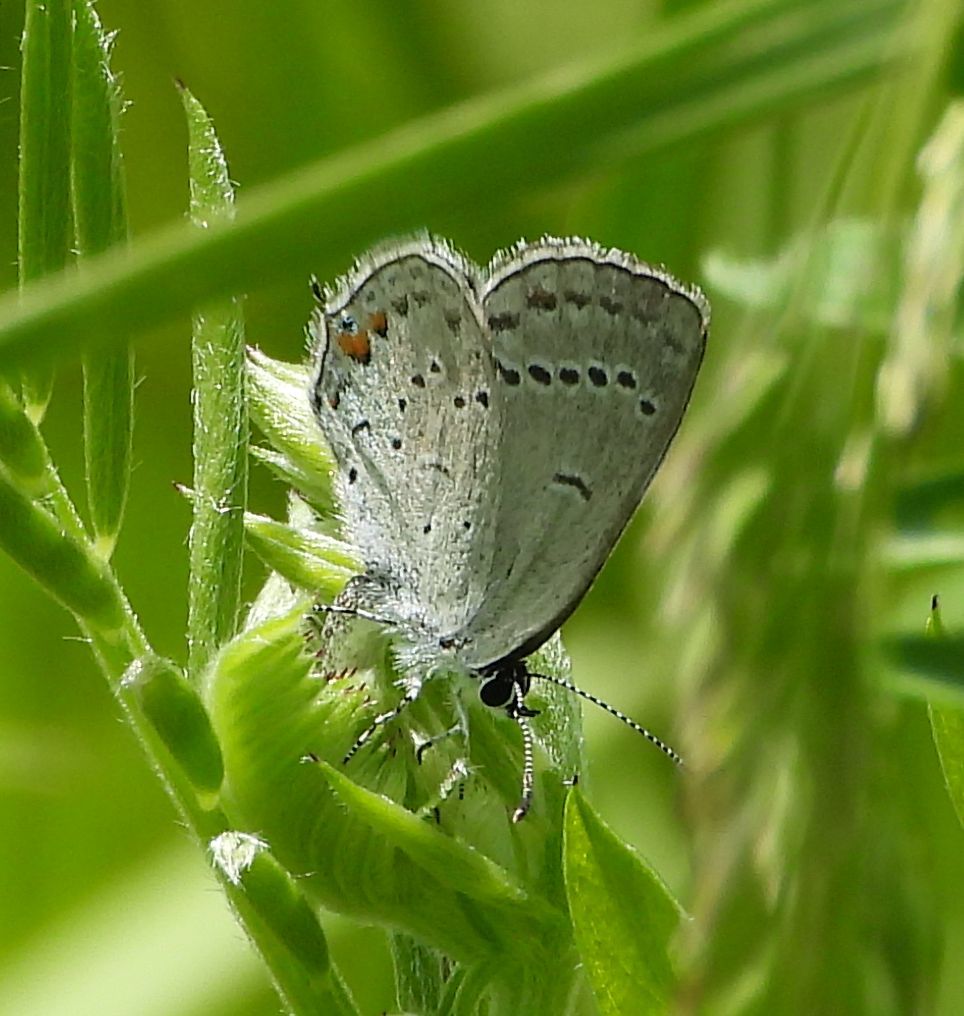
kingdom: Animalia
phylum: Arthropoda
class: Insecta
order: Lepidoptera
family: Lycaenidae
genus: Elkalyce
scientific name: Elkalyce comyntas
